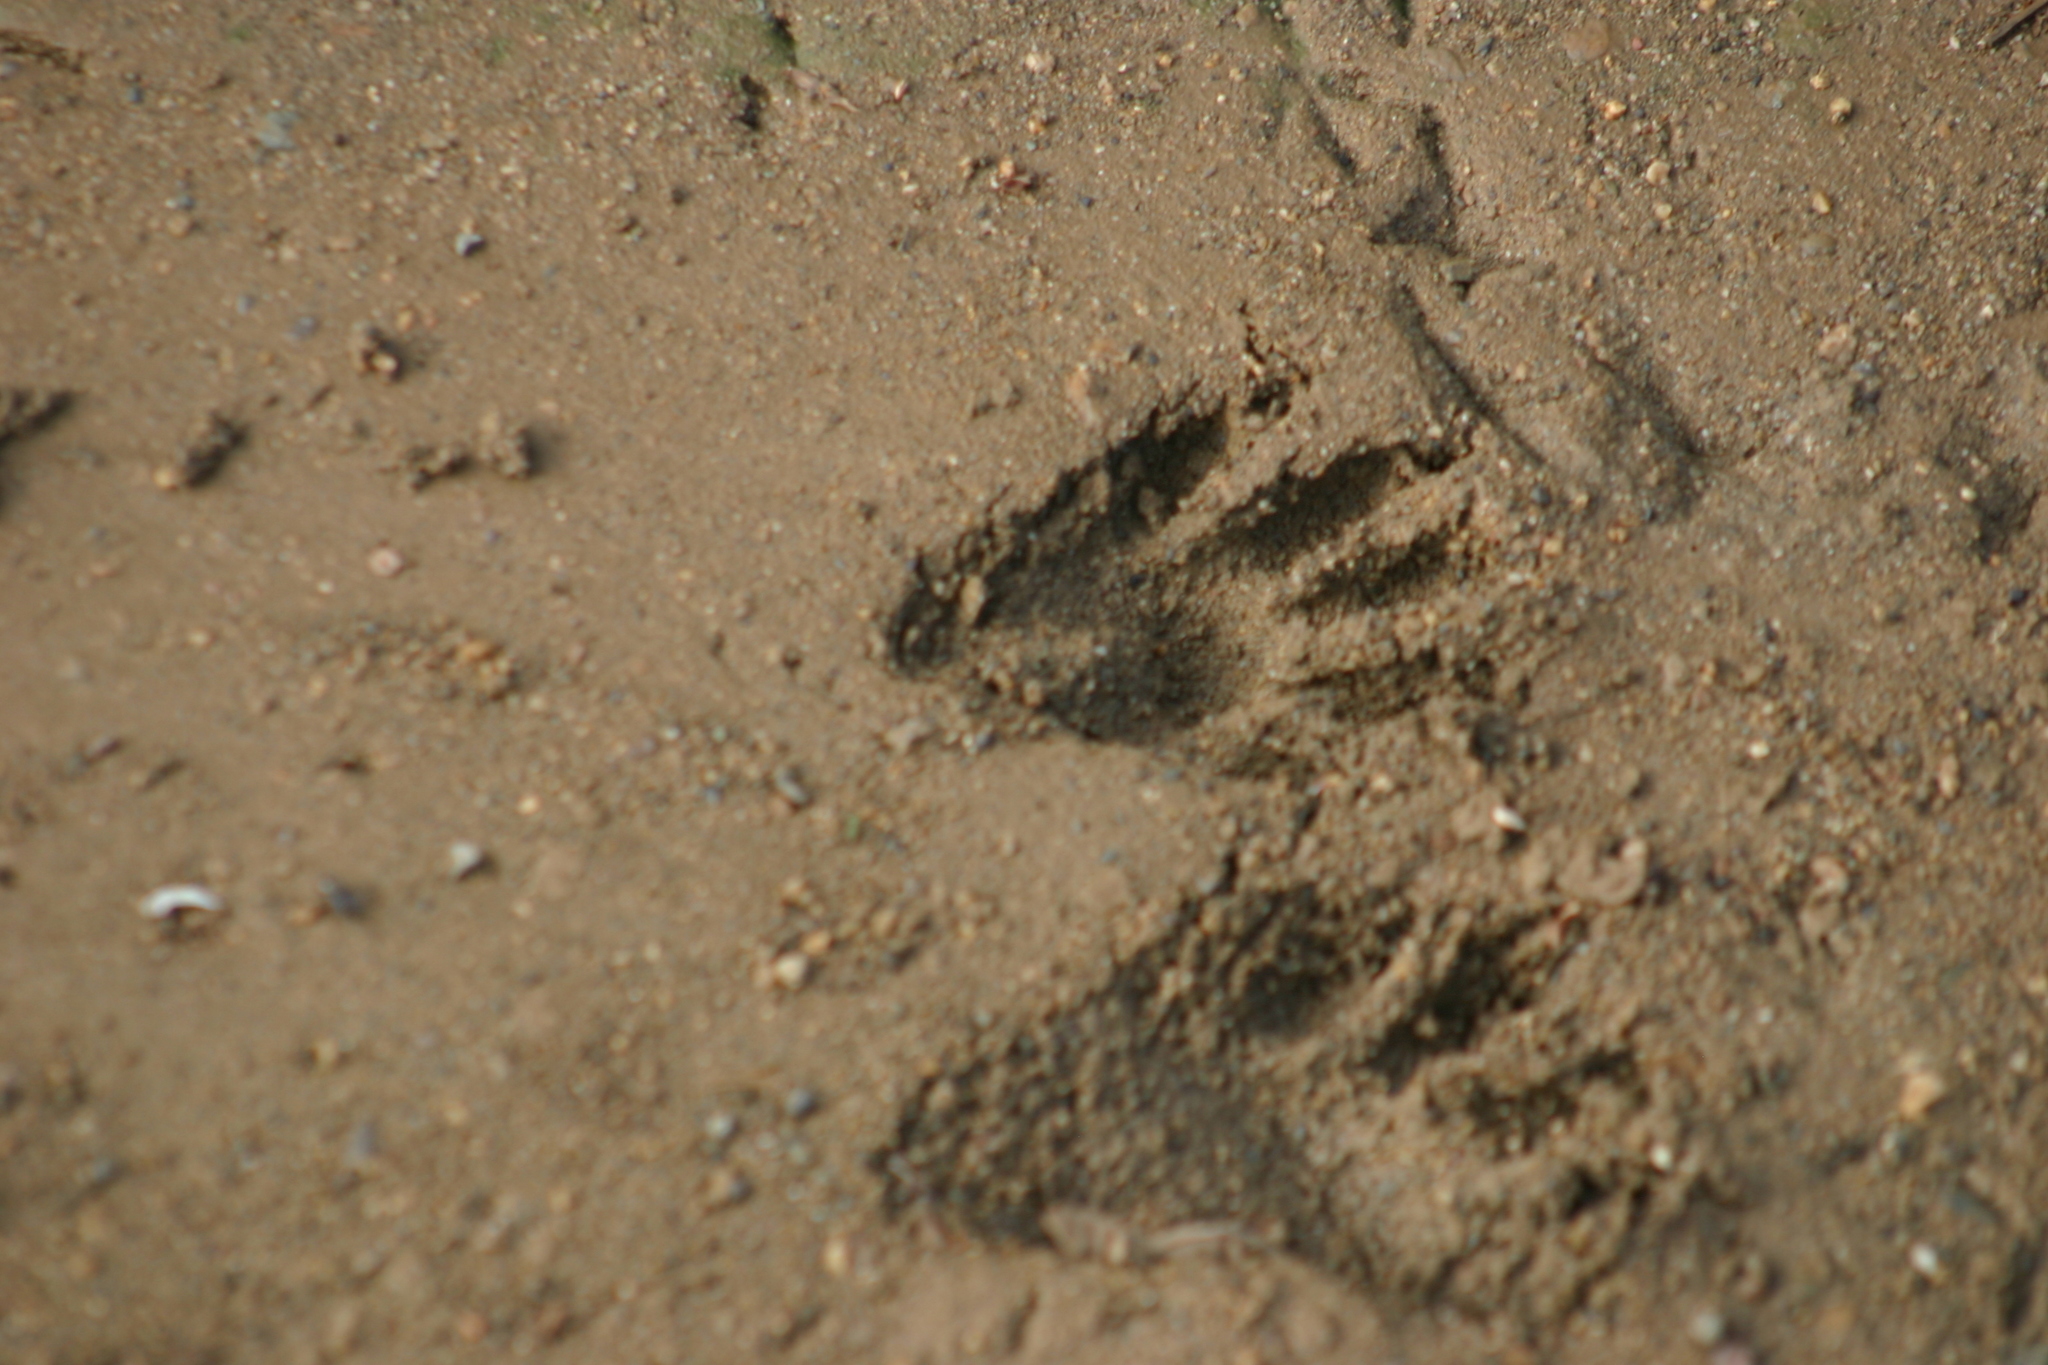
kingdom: Animalia
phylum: Chordata
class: Mammalia
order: Carnivora
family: Procyonidae
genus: Procyon
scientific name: Procyon lotor
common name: Raccoon
